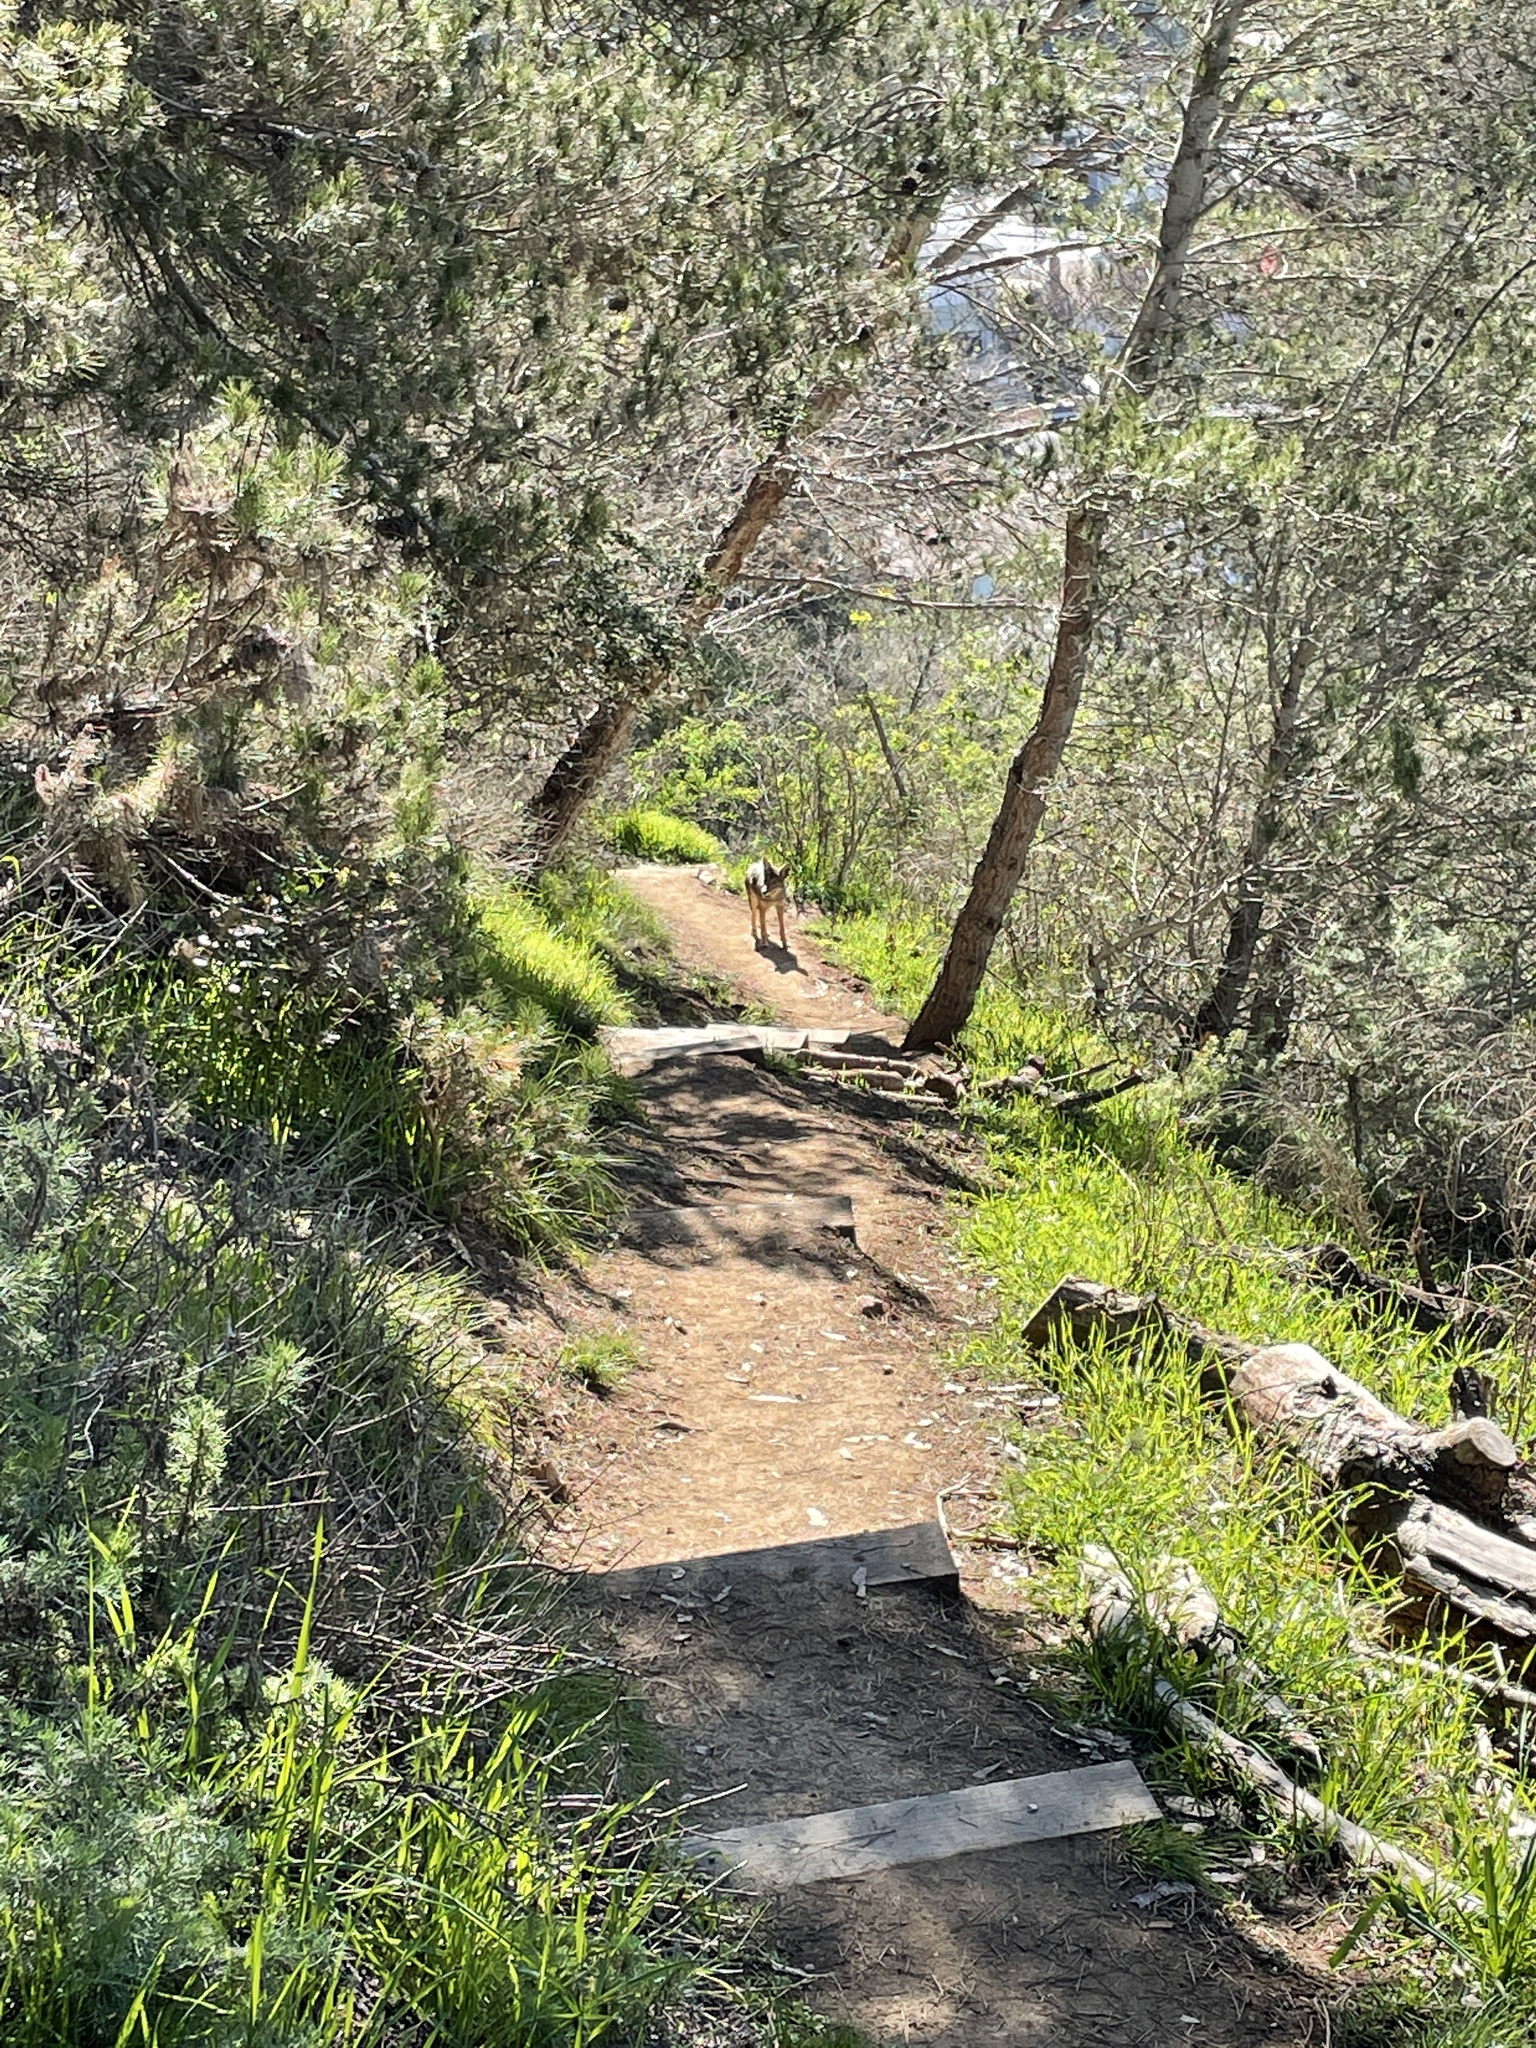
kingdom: Animalia
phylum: Chordata
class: Mammalia
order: Carnivora
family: Canidae
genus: Canis
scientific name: Canis latrans
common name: Coyote
